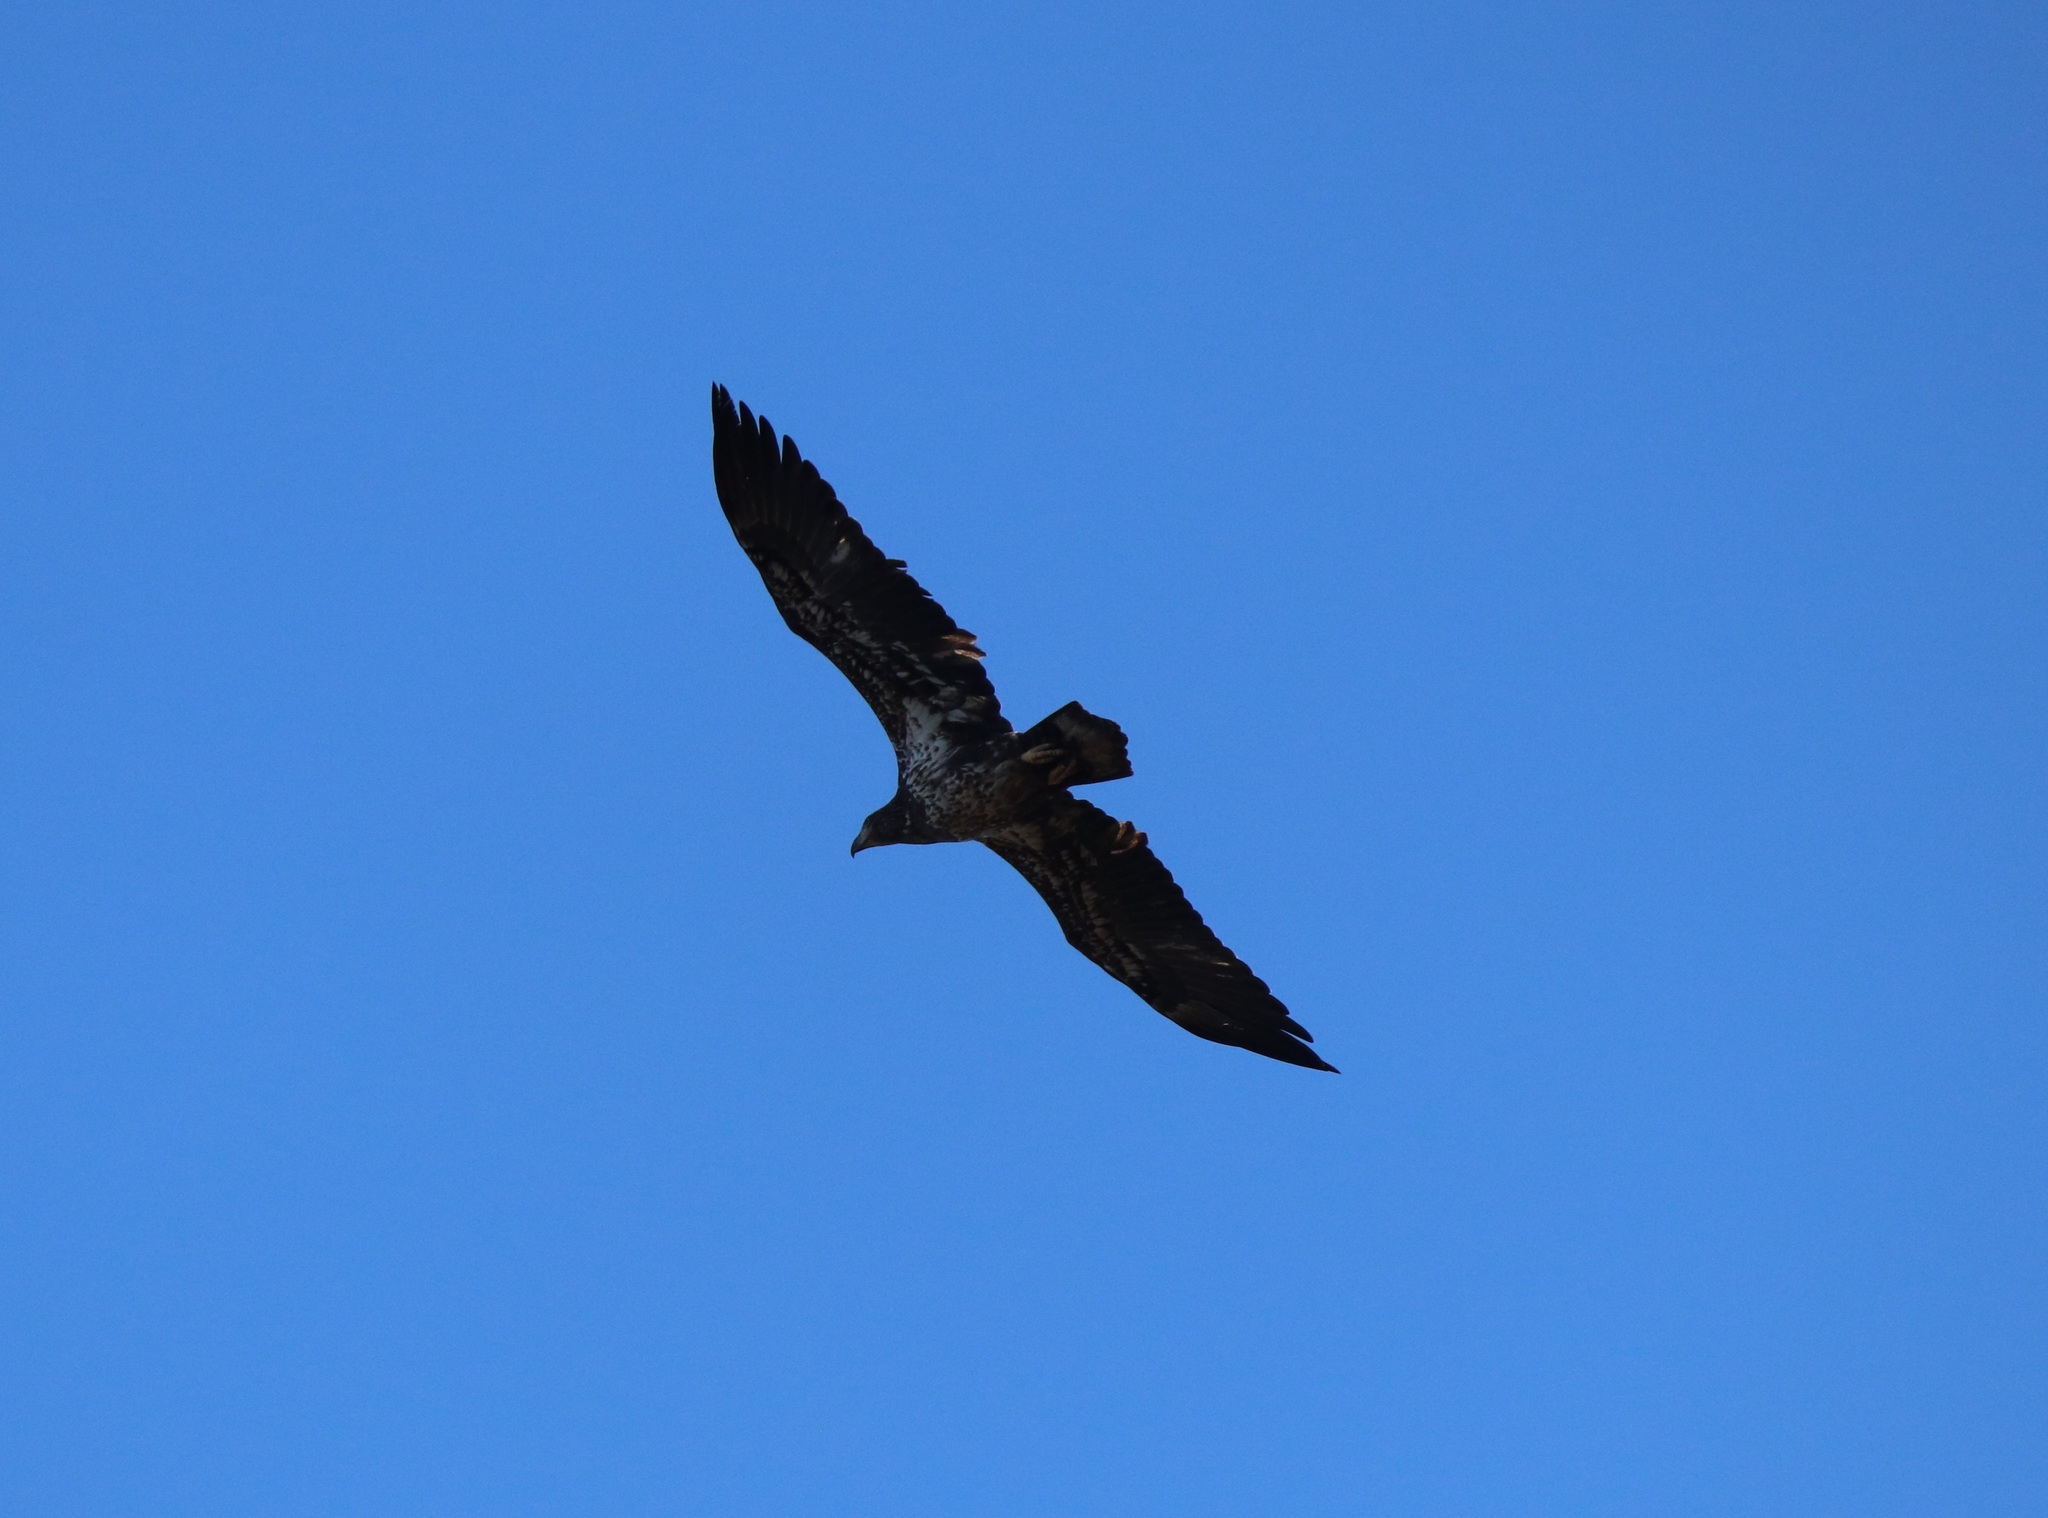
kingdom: Animalia
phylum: Chordata
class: Aves
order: Accipitriformes
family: Accipitridae
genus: Haliaeetus
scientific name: Haliaeetus leucocephalus
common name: Bald eagle
